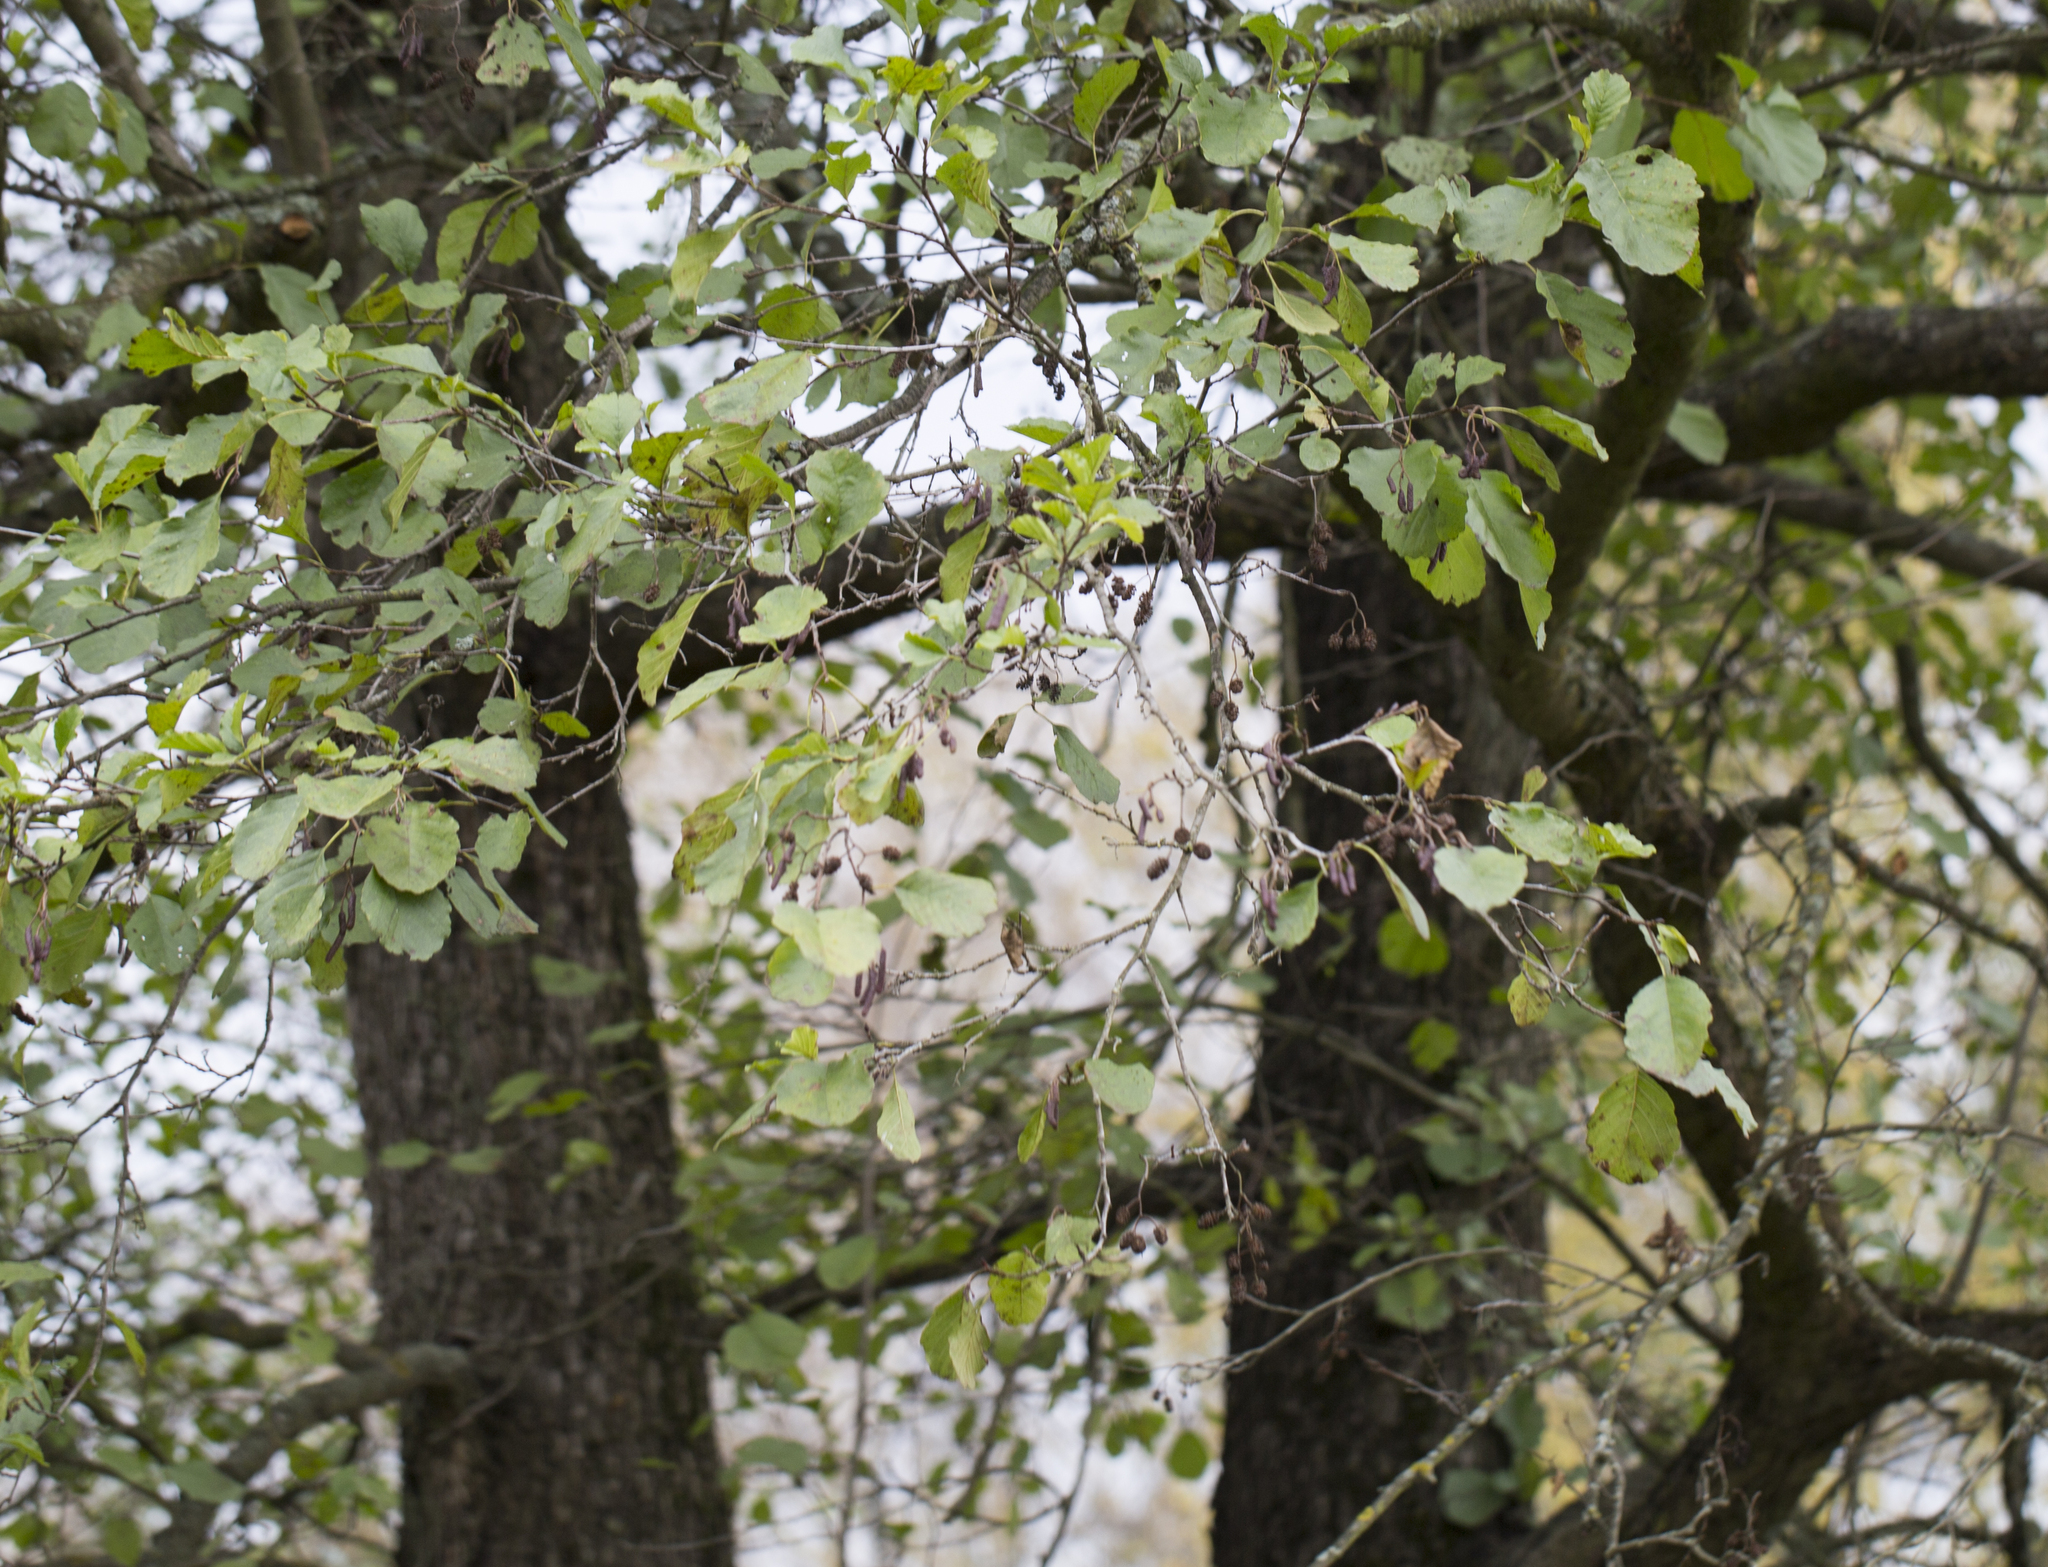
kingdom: Plantae
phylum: Tracheophyta
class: Magnoliopsida
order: Fagales
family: Betulaceae
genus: Alnus
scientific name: Alnus glutinosa
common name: Black alder
